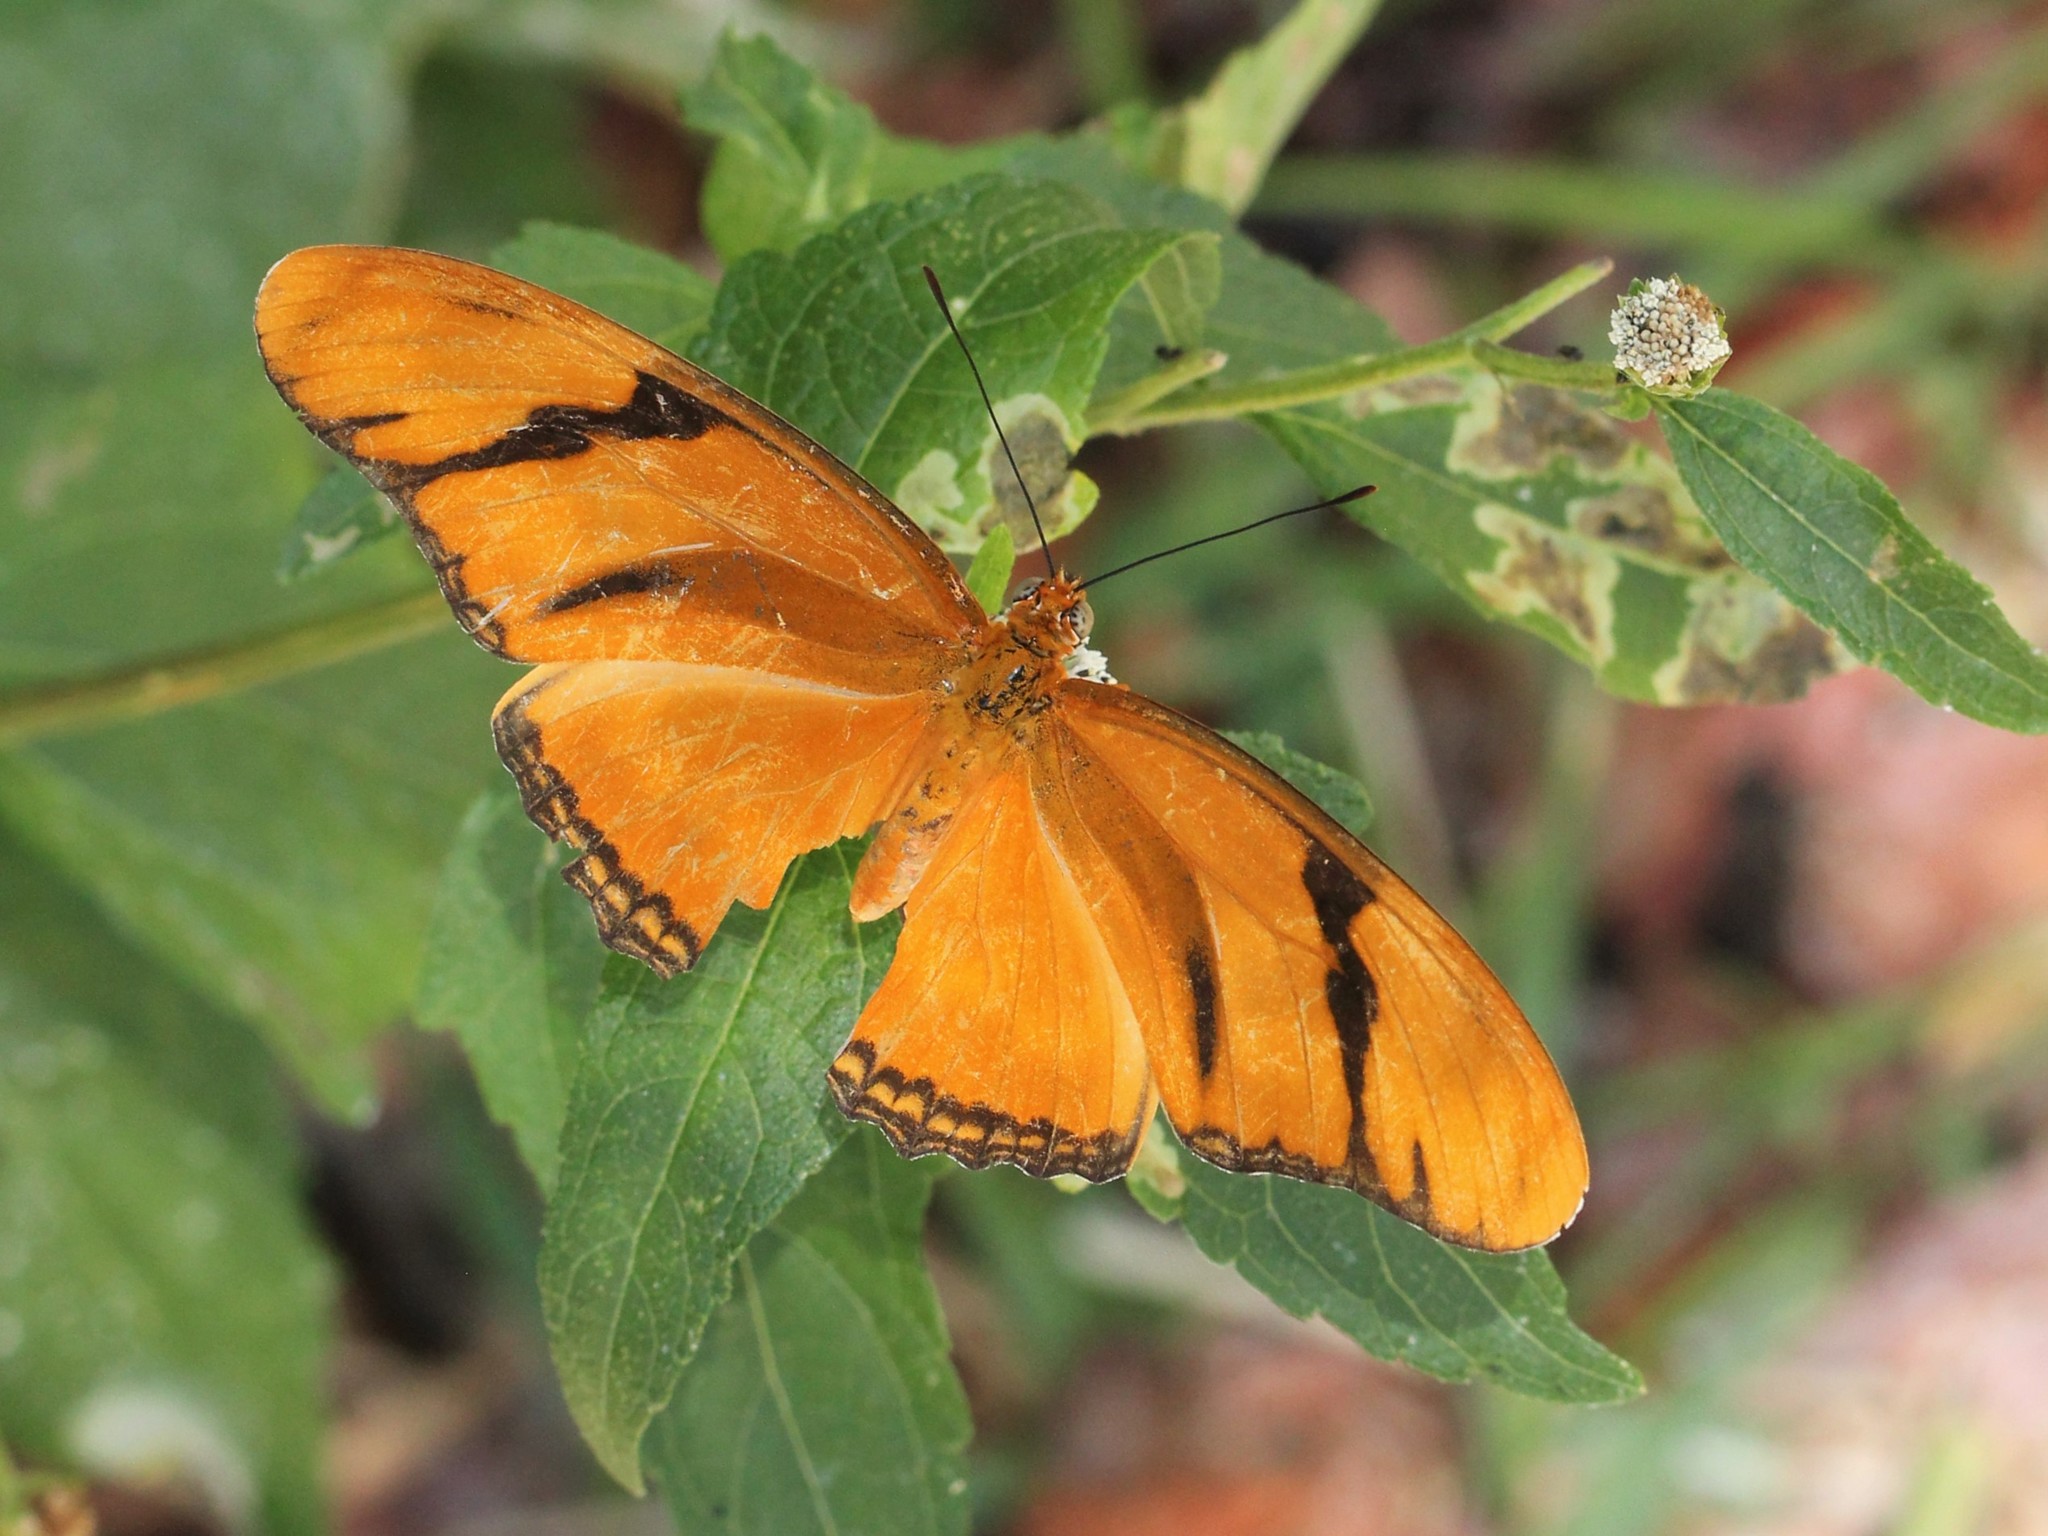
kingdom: Animalia
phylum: Arthropoda
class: Insecta
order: Lepidoptera
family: Nymphalidae
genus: Dryas
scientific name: Dryas iulia
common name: Flambeau
